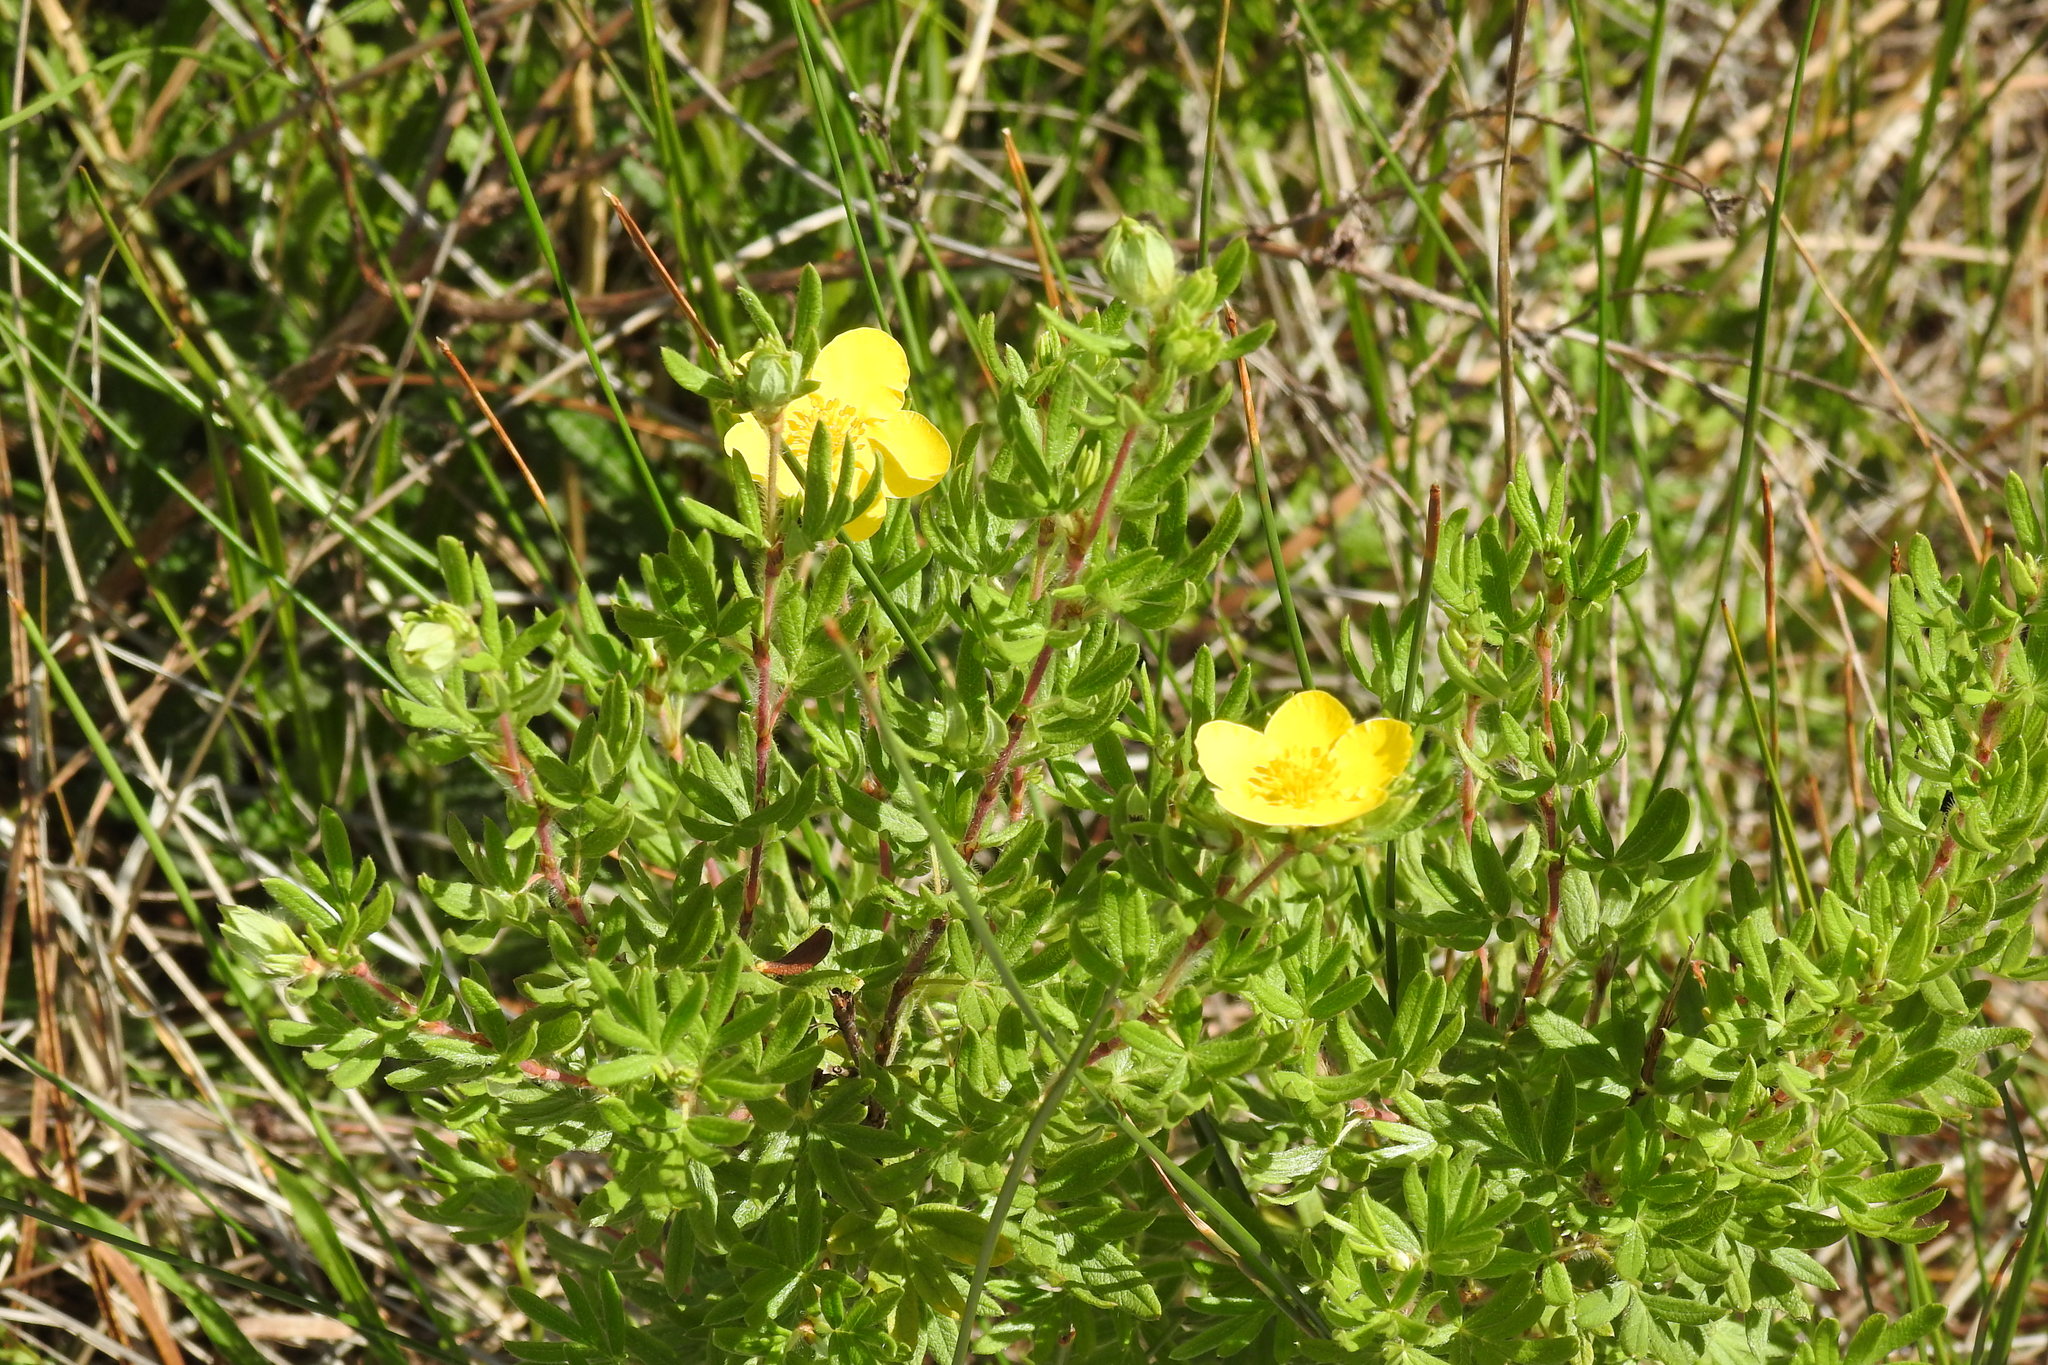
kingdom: Plantae
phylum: Tracheophyta
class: Magnoliopsida
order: Rosales
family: Rosaceae
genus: Dasiphora
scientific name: Dasiphora fruticosa
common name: Shrubby cinquefoil
